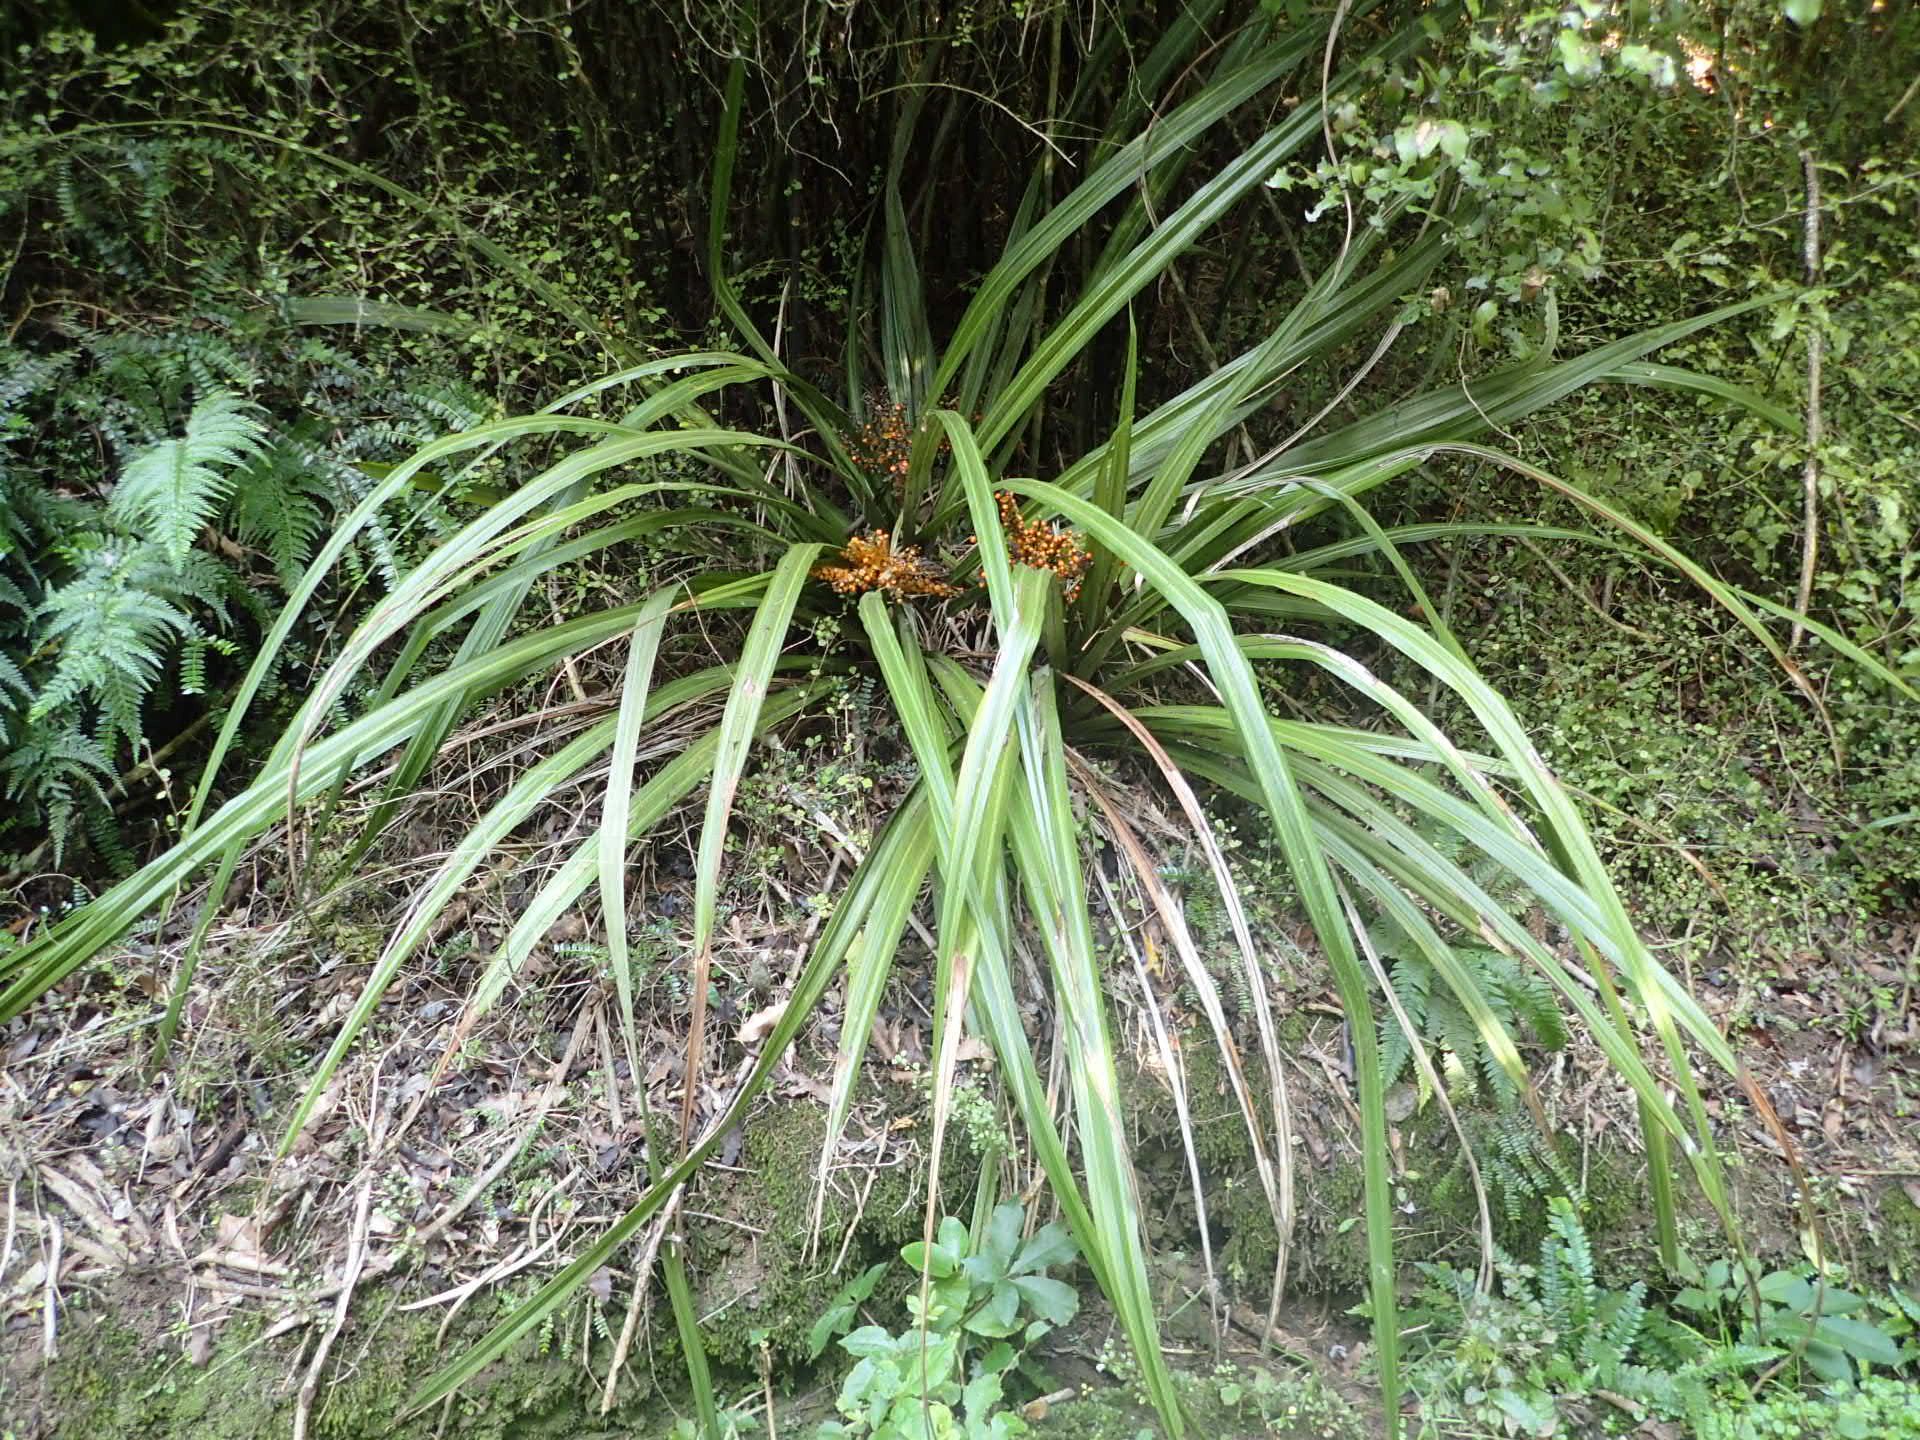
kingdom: Plantae
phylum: Tracheophyta
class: Liliopsida
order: Asparagales
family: Asteliaceae
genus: Astelia
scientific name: Astelia fragrans
